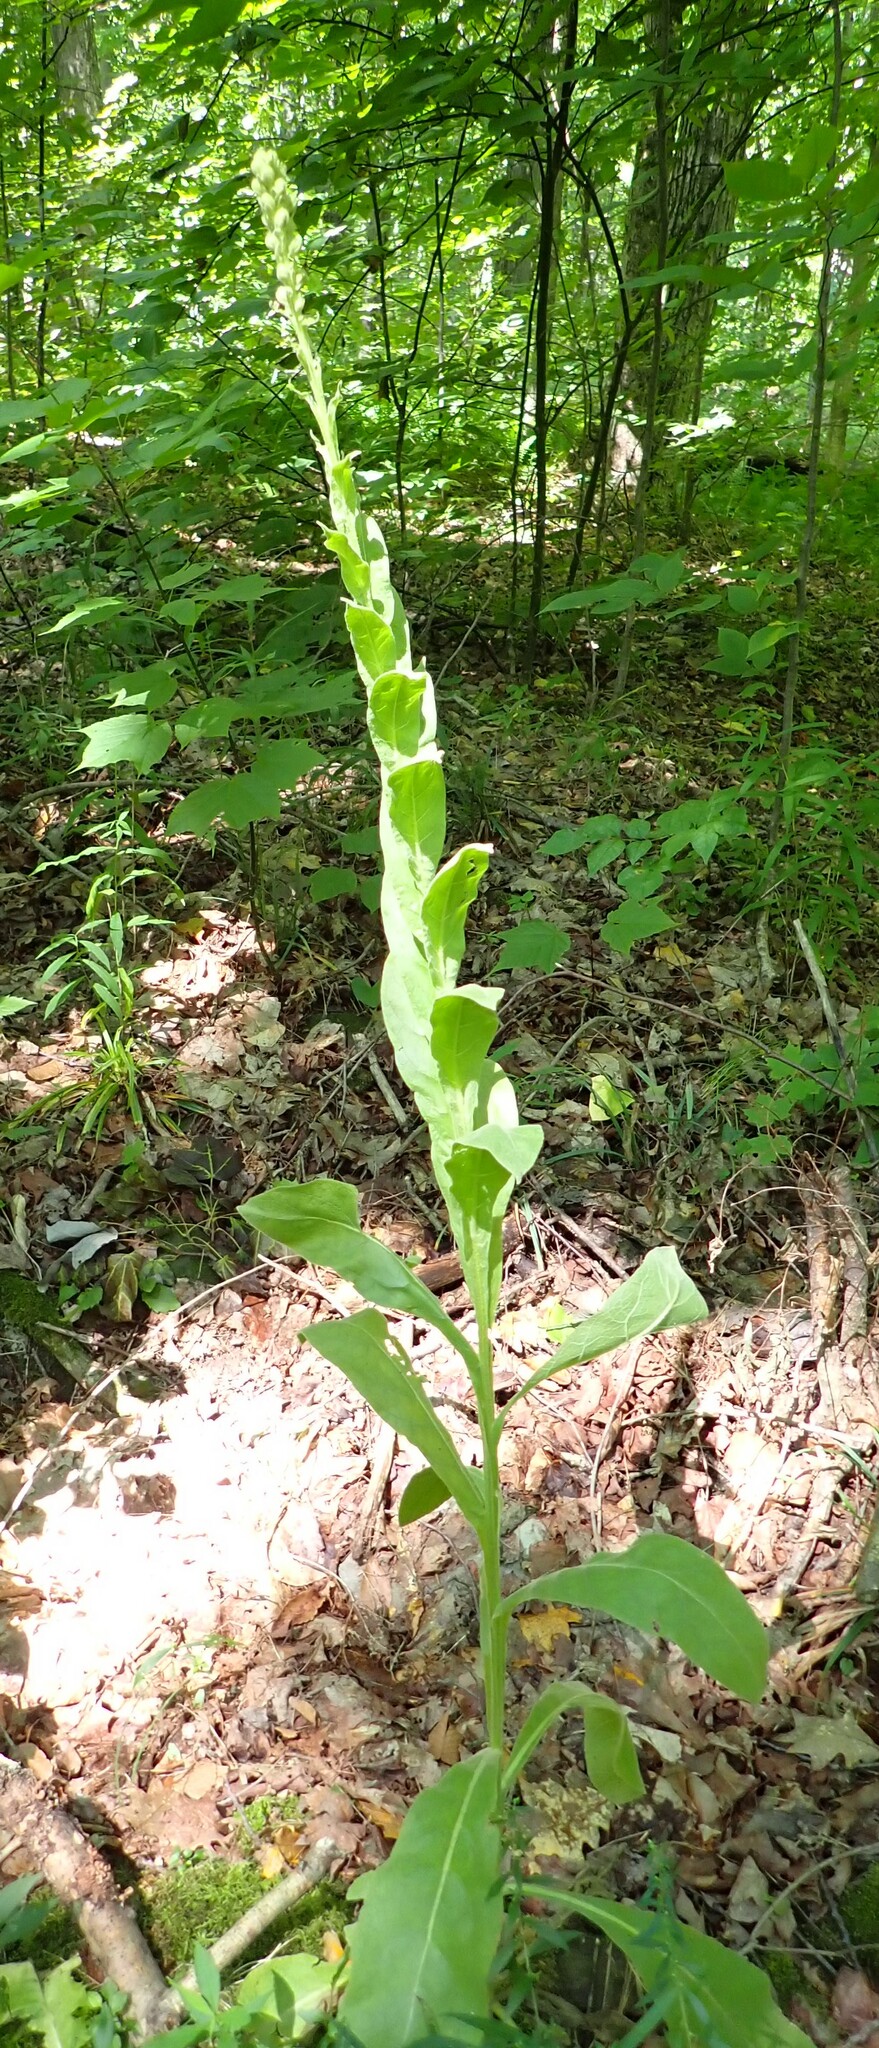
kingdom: Plantae
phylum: Tracheophyta
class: Magnoliopsida
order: Lamiales
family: Scrophulariaceae
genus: Verbascum
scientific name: Verbascum thapsus
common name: Common mullein
